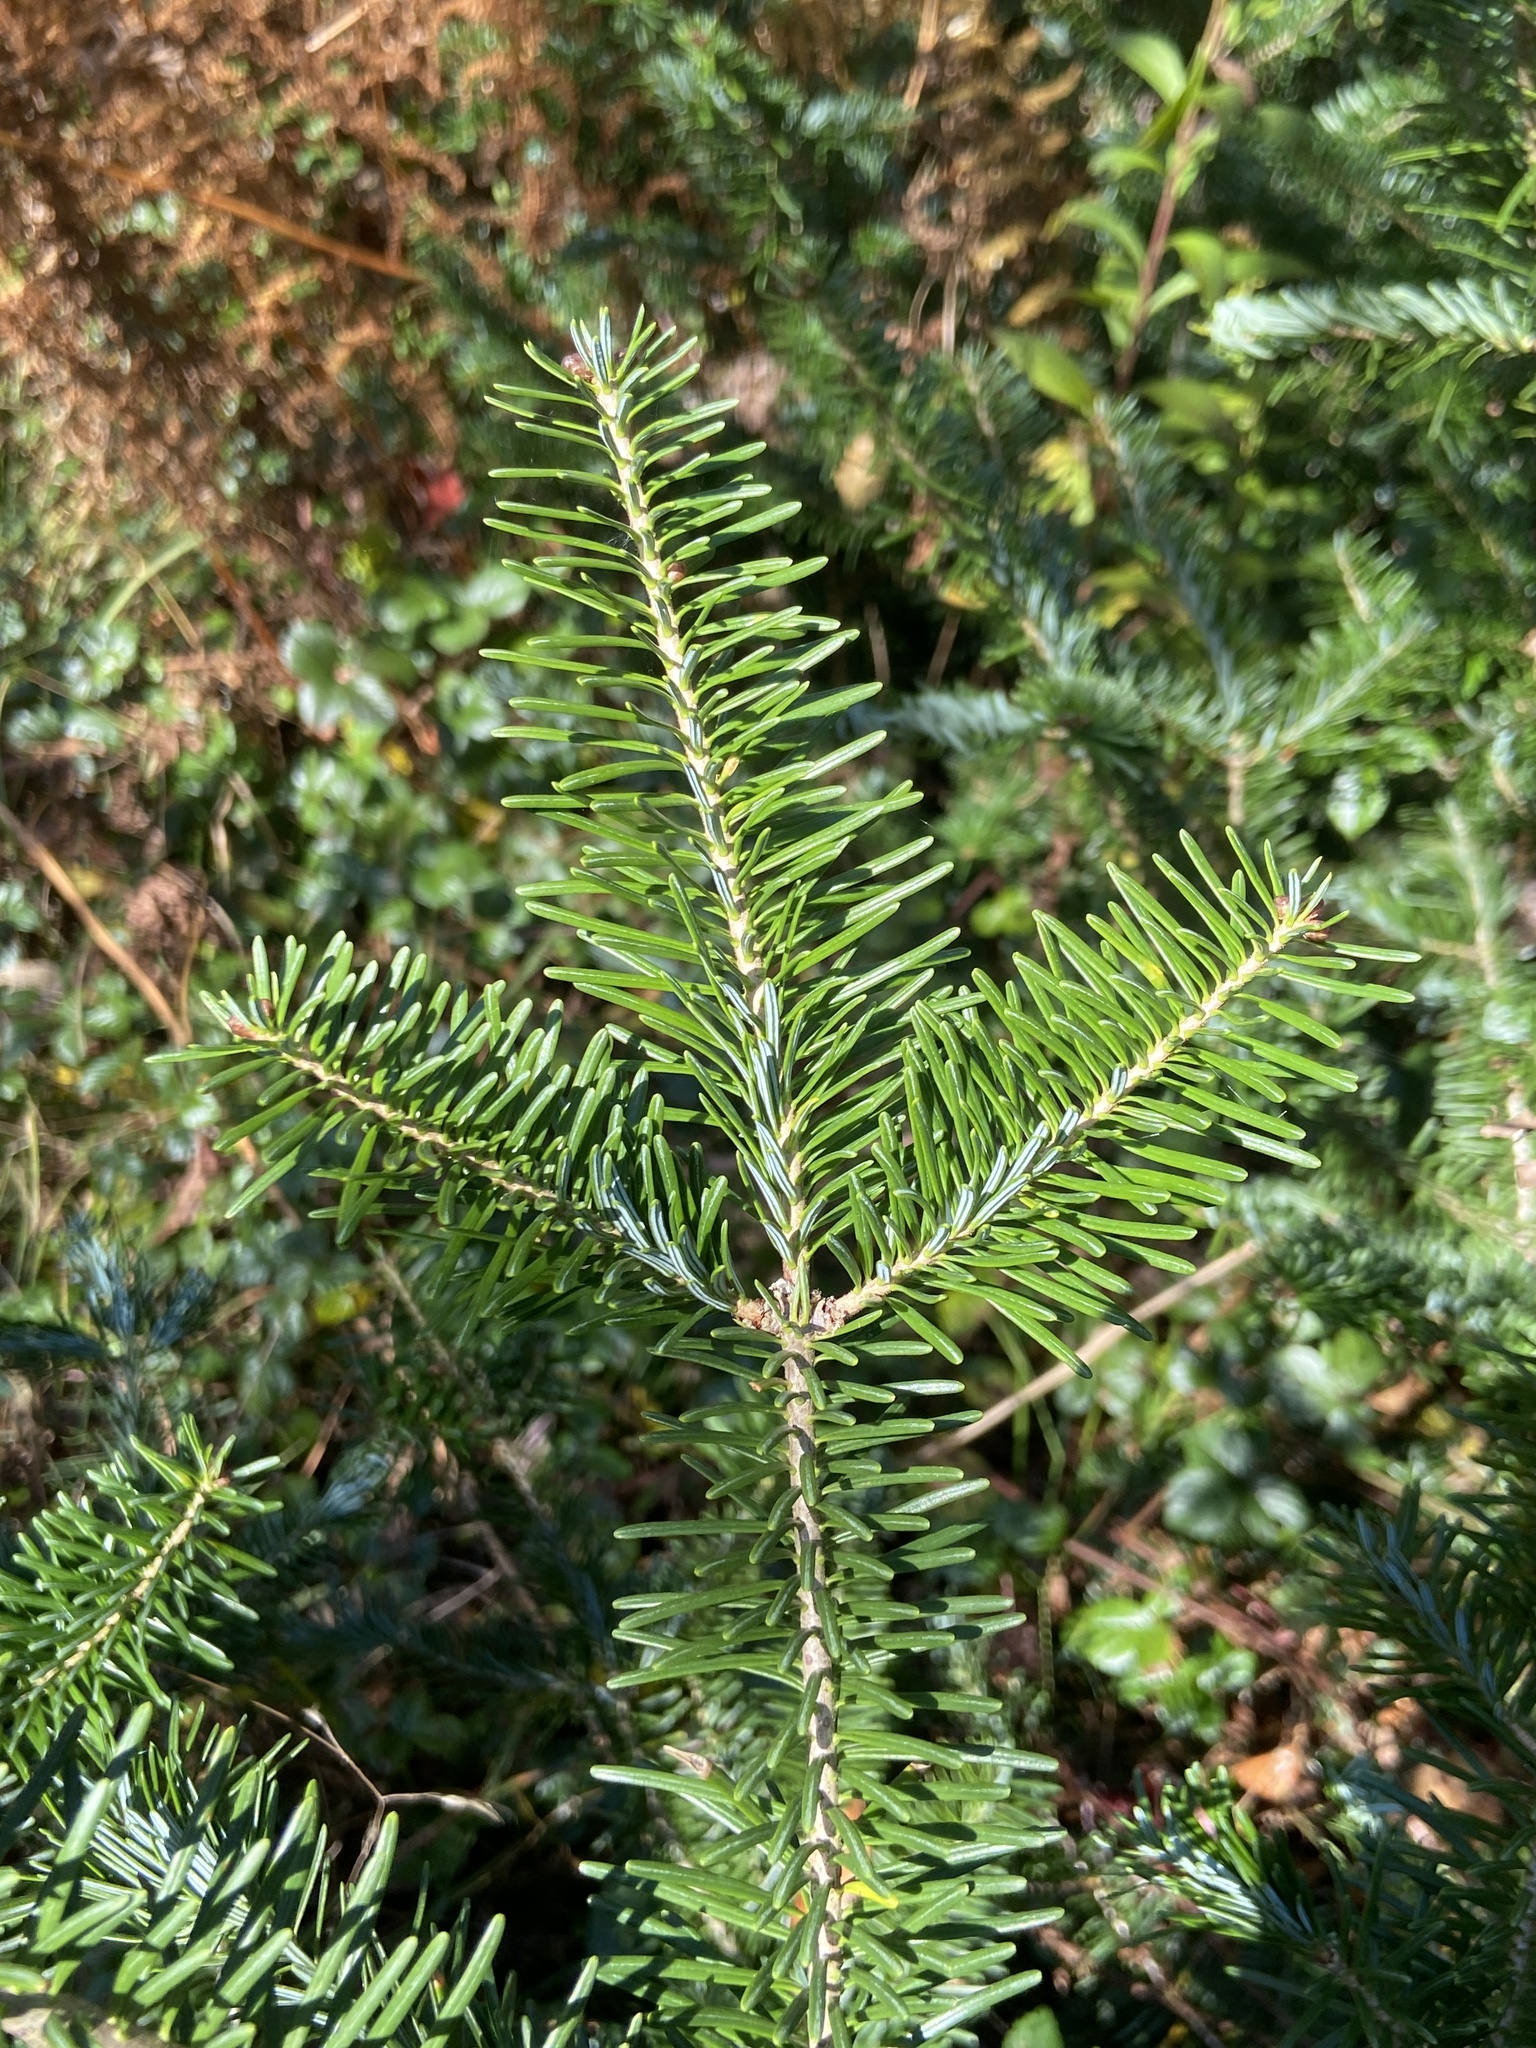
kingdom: Plantae
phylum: Tracheophyta
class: Pinopsida
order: Pinales
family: Pinaceae
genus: Abies
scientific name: Abies balsamea
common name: Balsam fir
